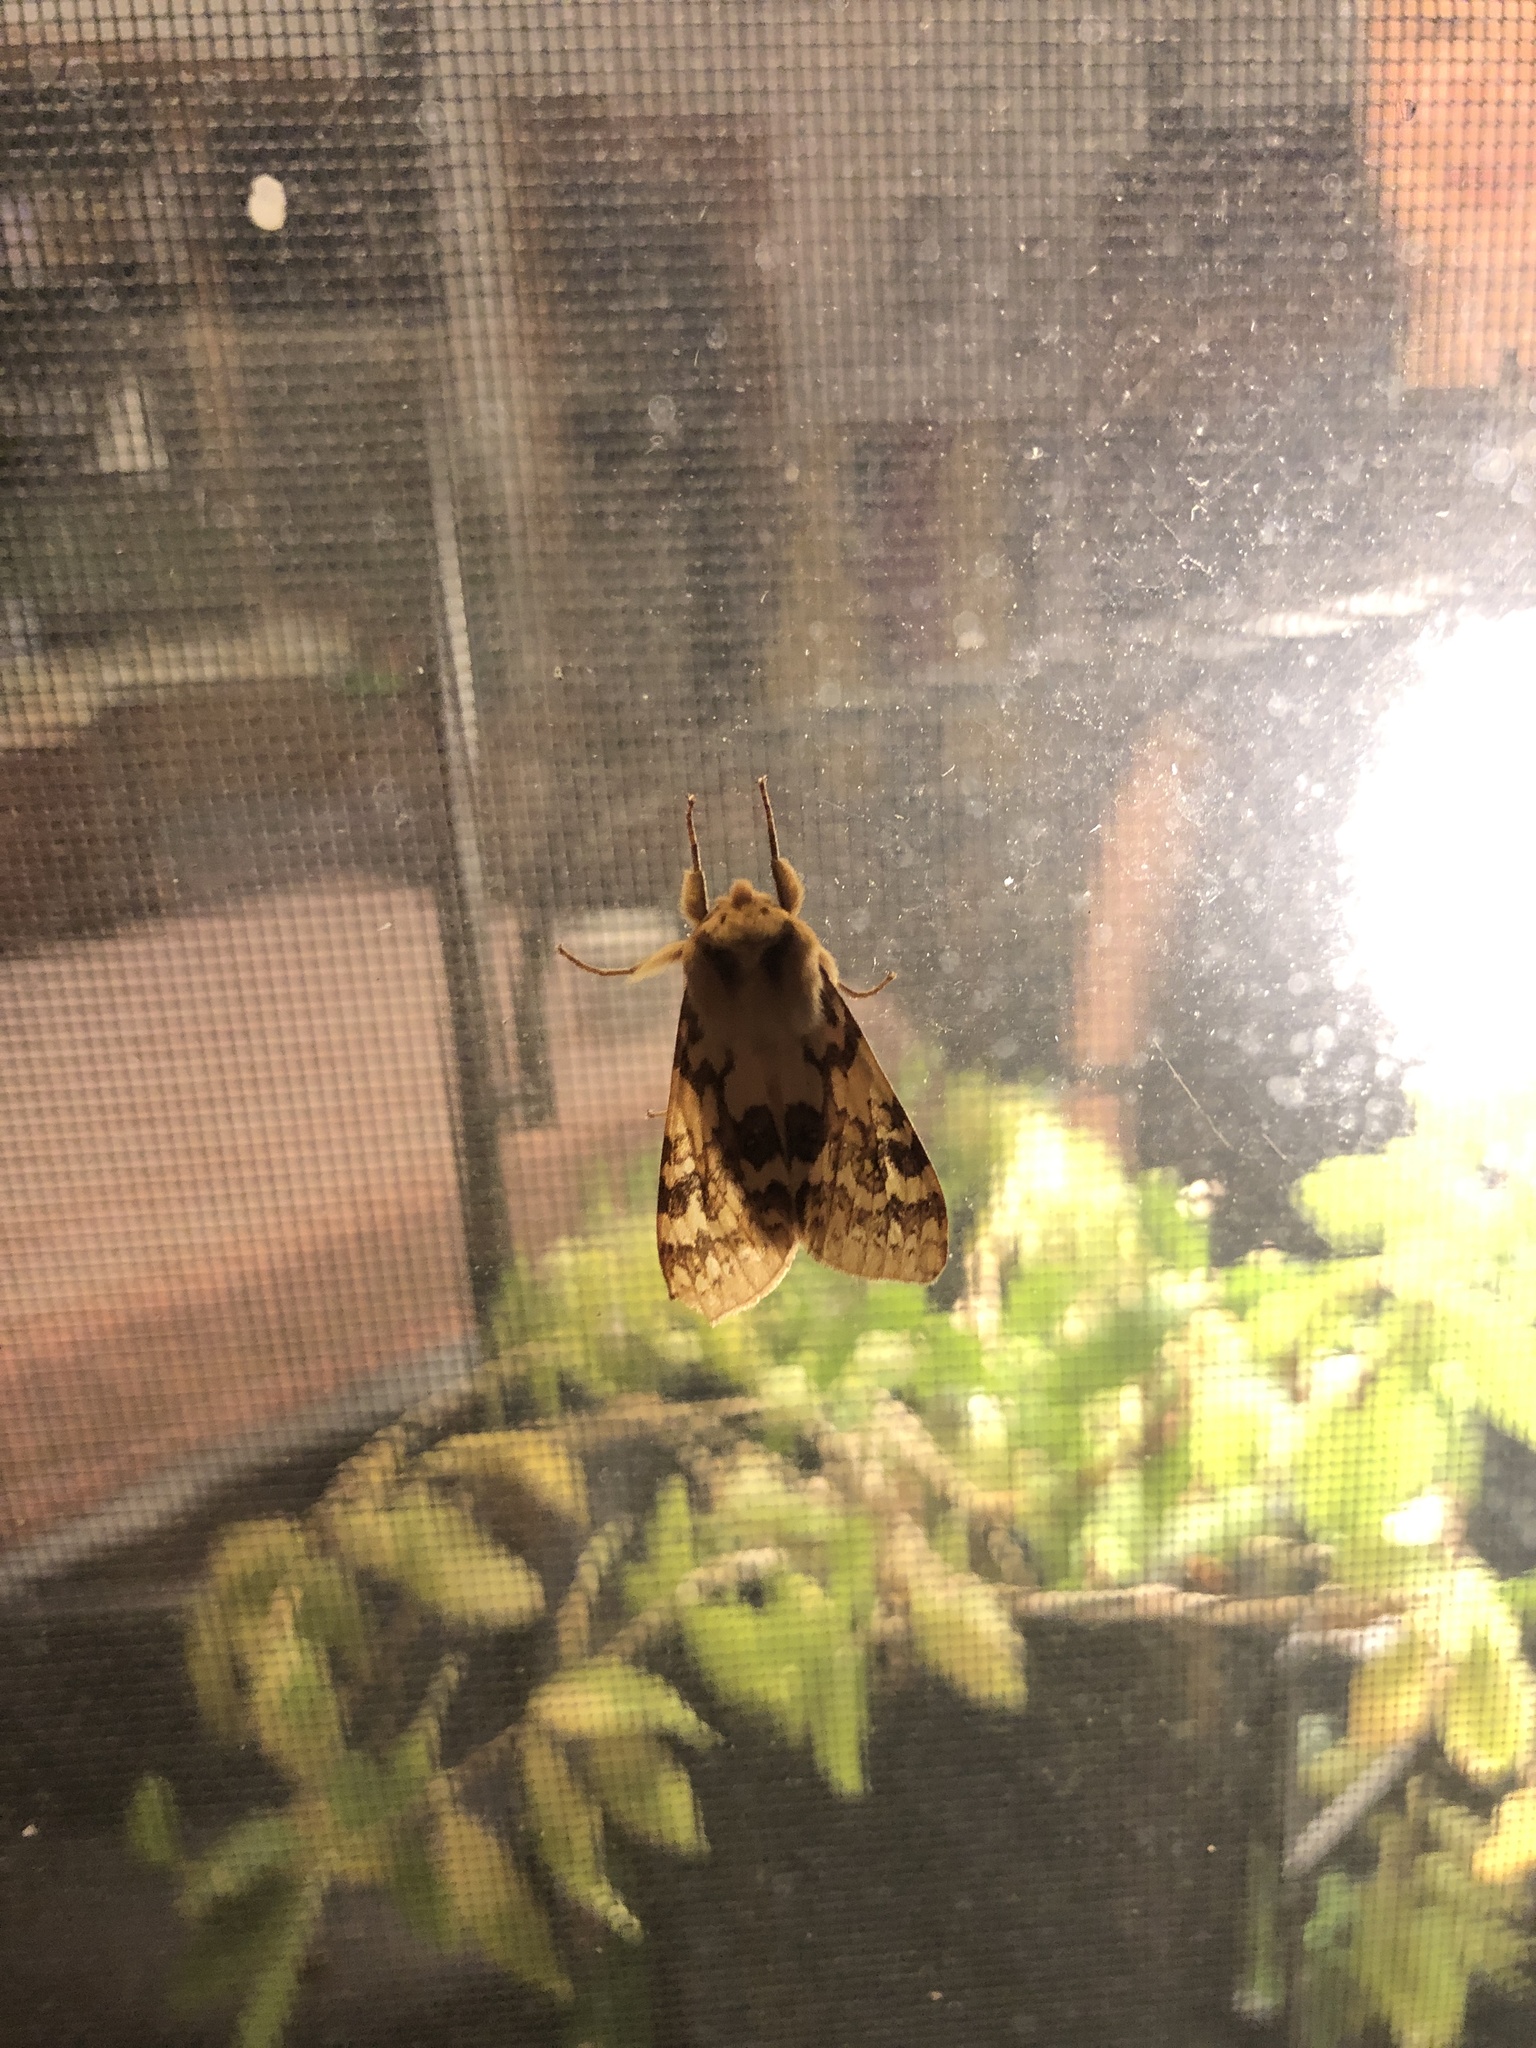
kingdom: Animalia
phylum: Arthropoda
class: Insecta
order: Lepidoptera
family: Erebidae
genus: Lophocampa
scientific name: Lophocampa maculata
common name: Spotted tussock moth
